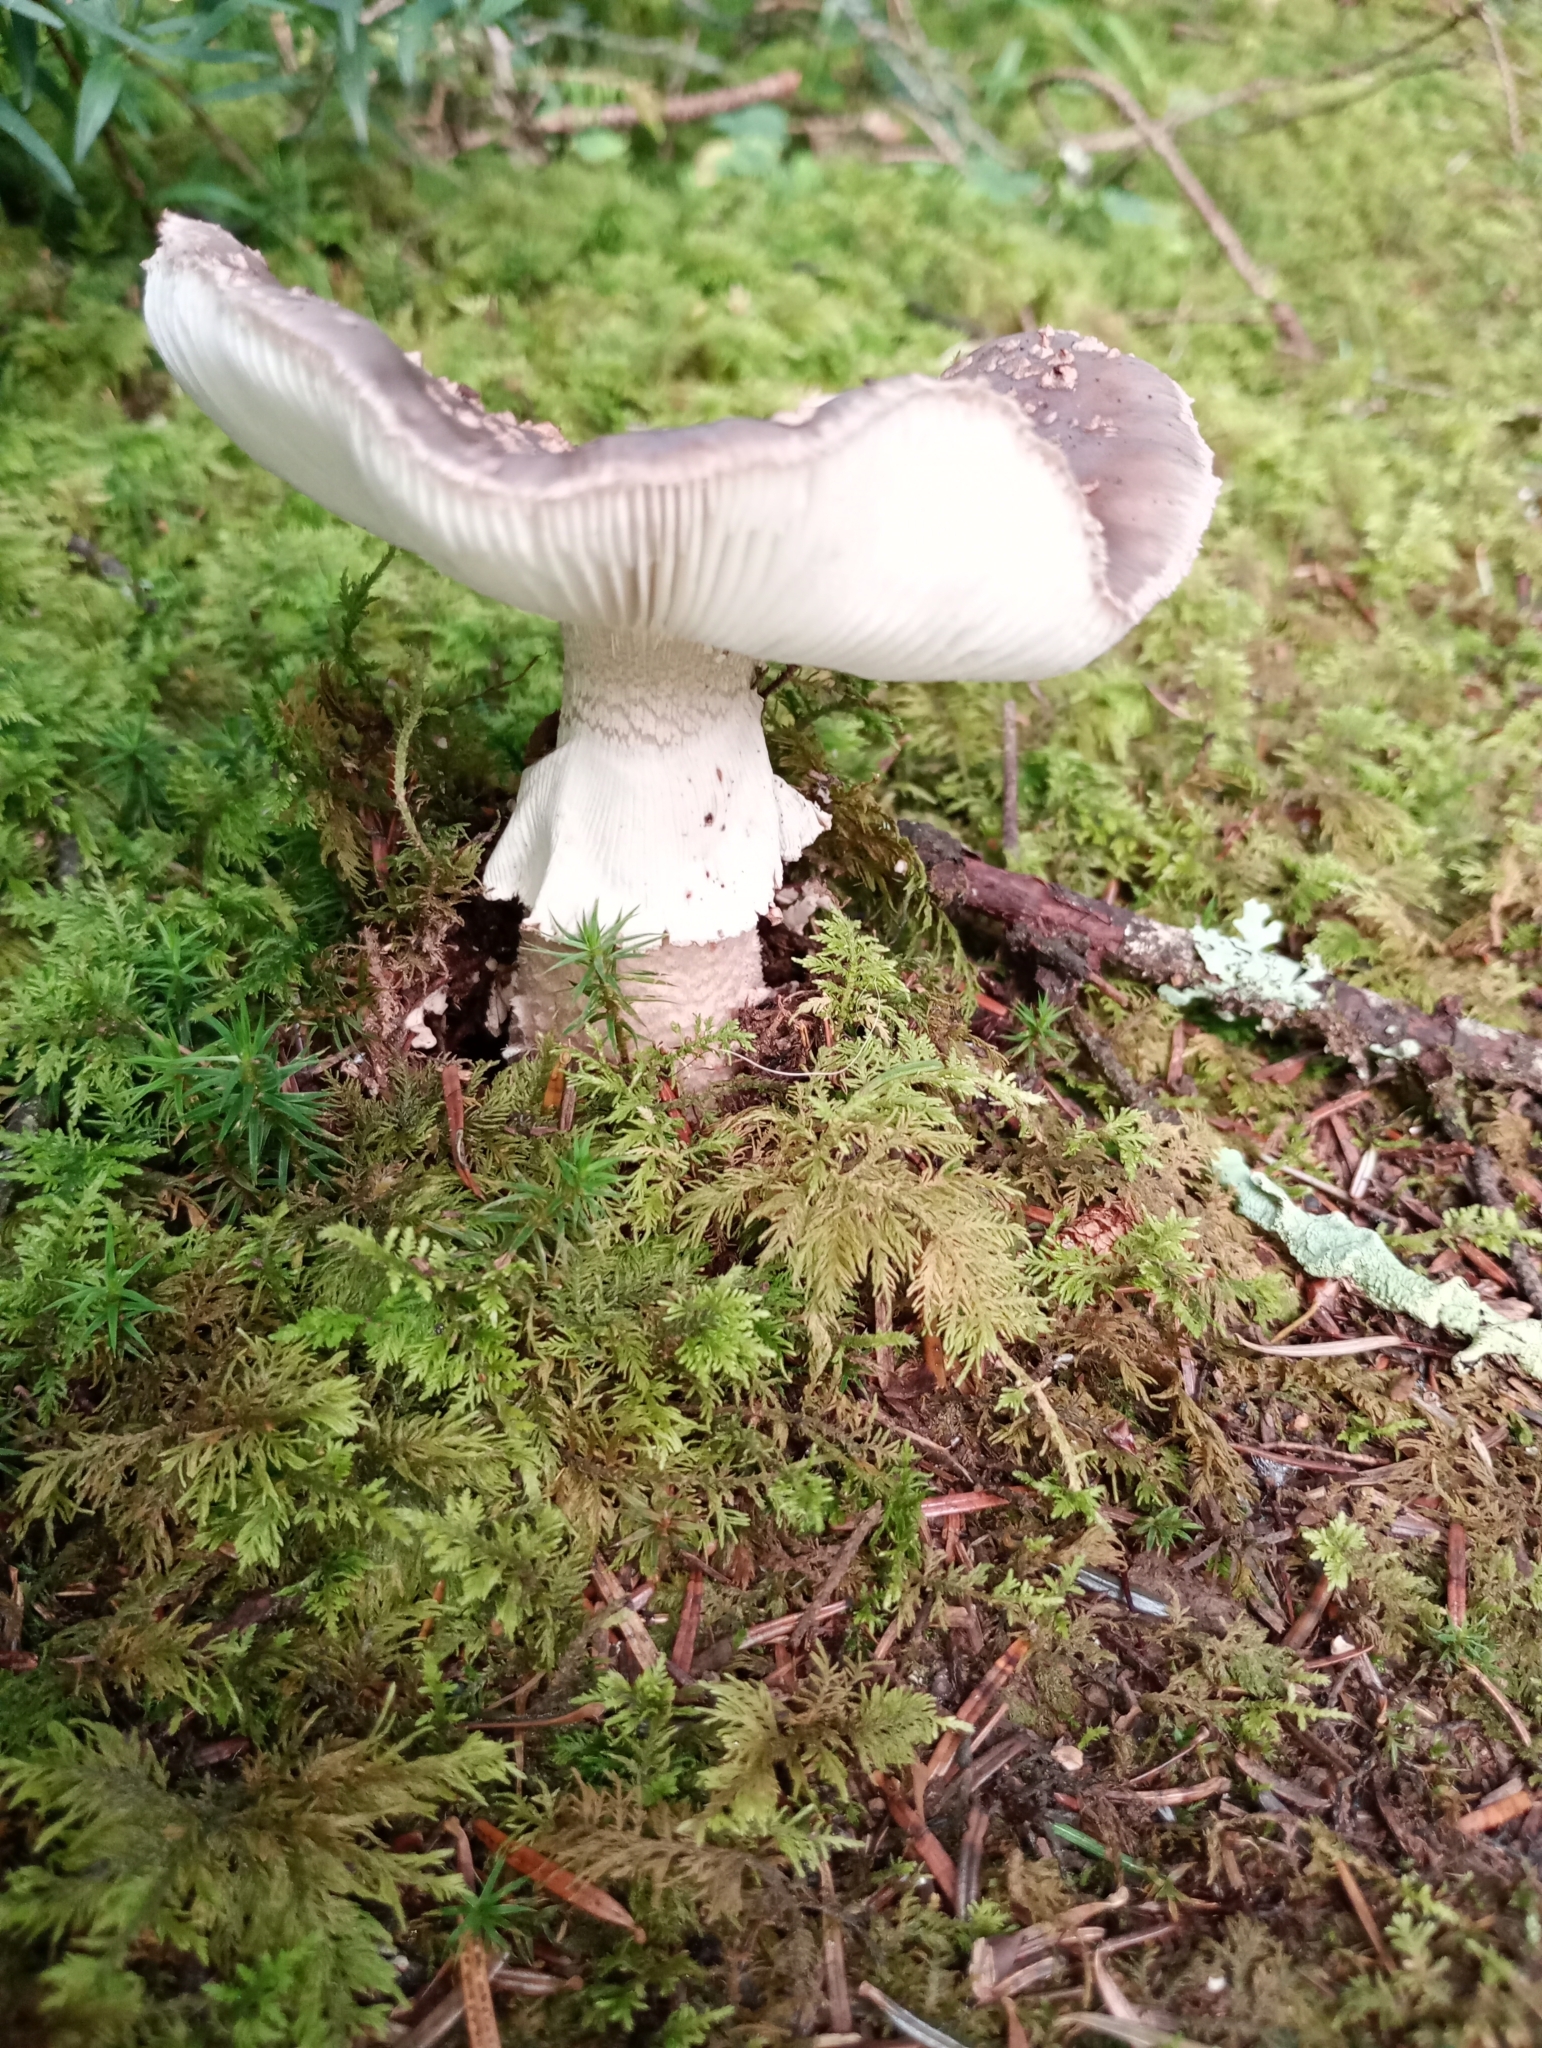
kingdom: Fungi
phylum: Basidiomycota
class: Agaricomycetes
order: Agaricales
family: Amanitaceae
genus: Amanita
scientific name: Amanita excelsa
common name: European false blusher
